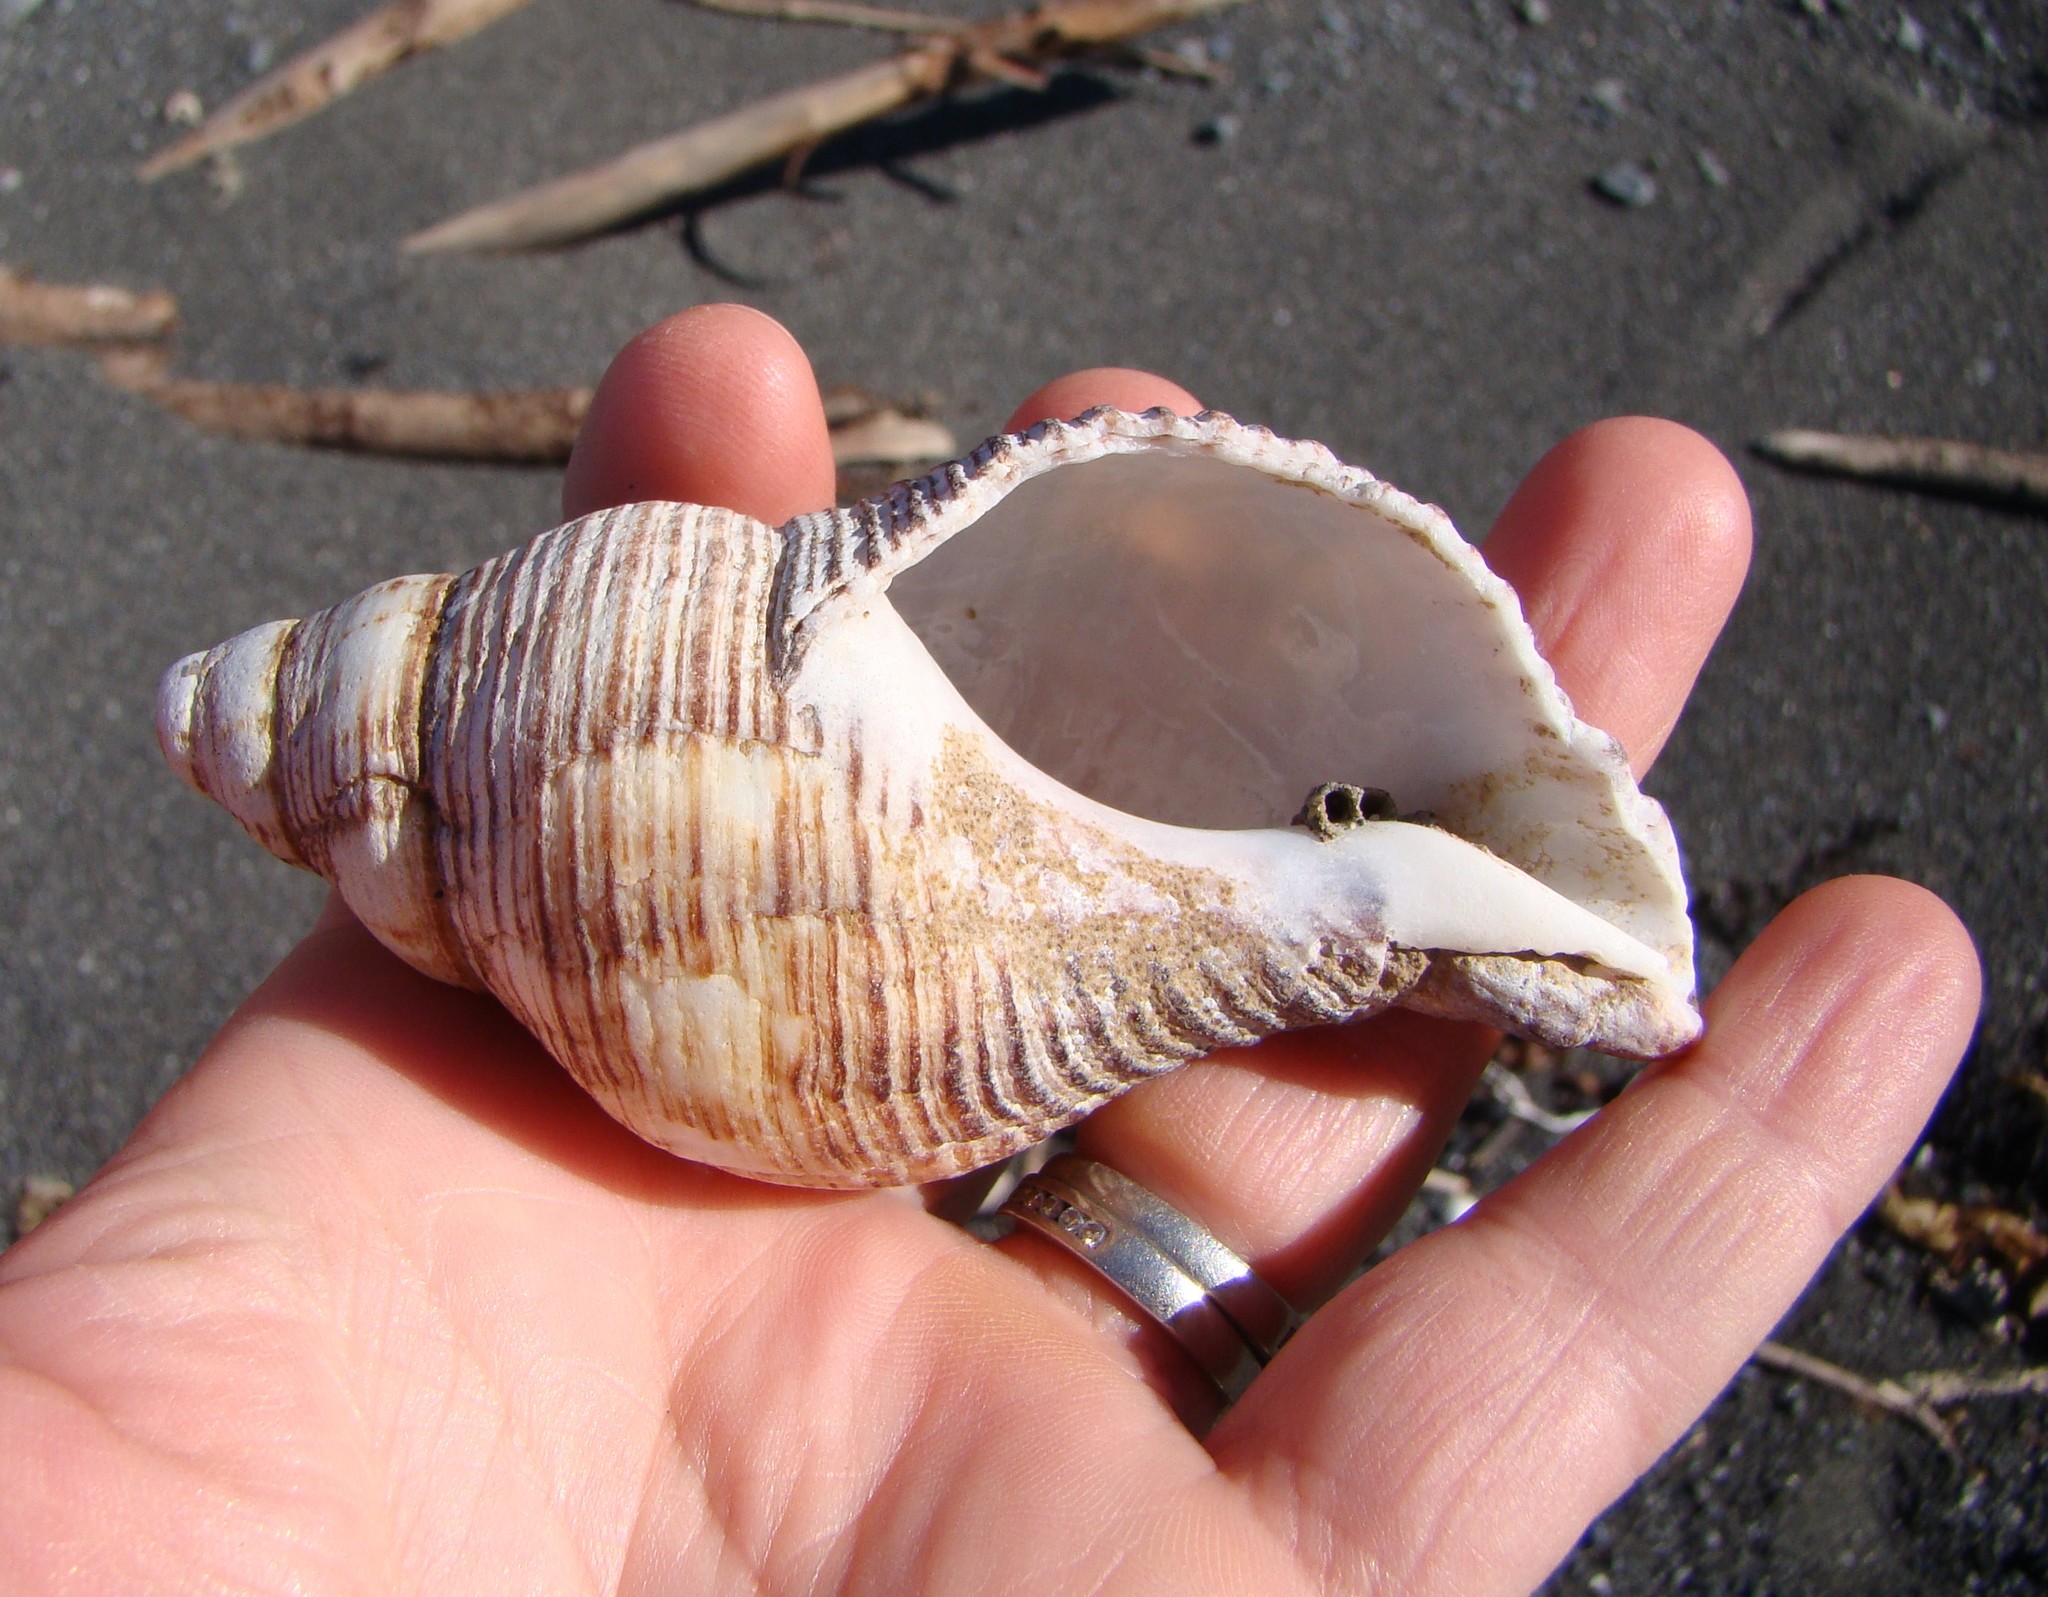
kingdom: Animalia
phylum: Mollusca
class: Gastropoda
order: Neogastropoda
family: Austrosiphonidae
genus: Penion
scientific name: Penion sulcatus
